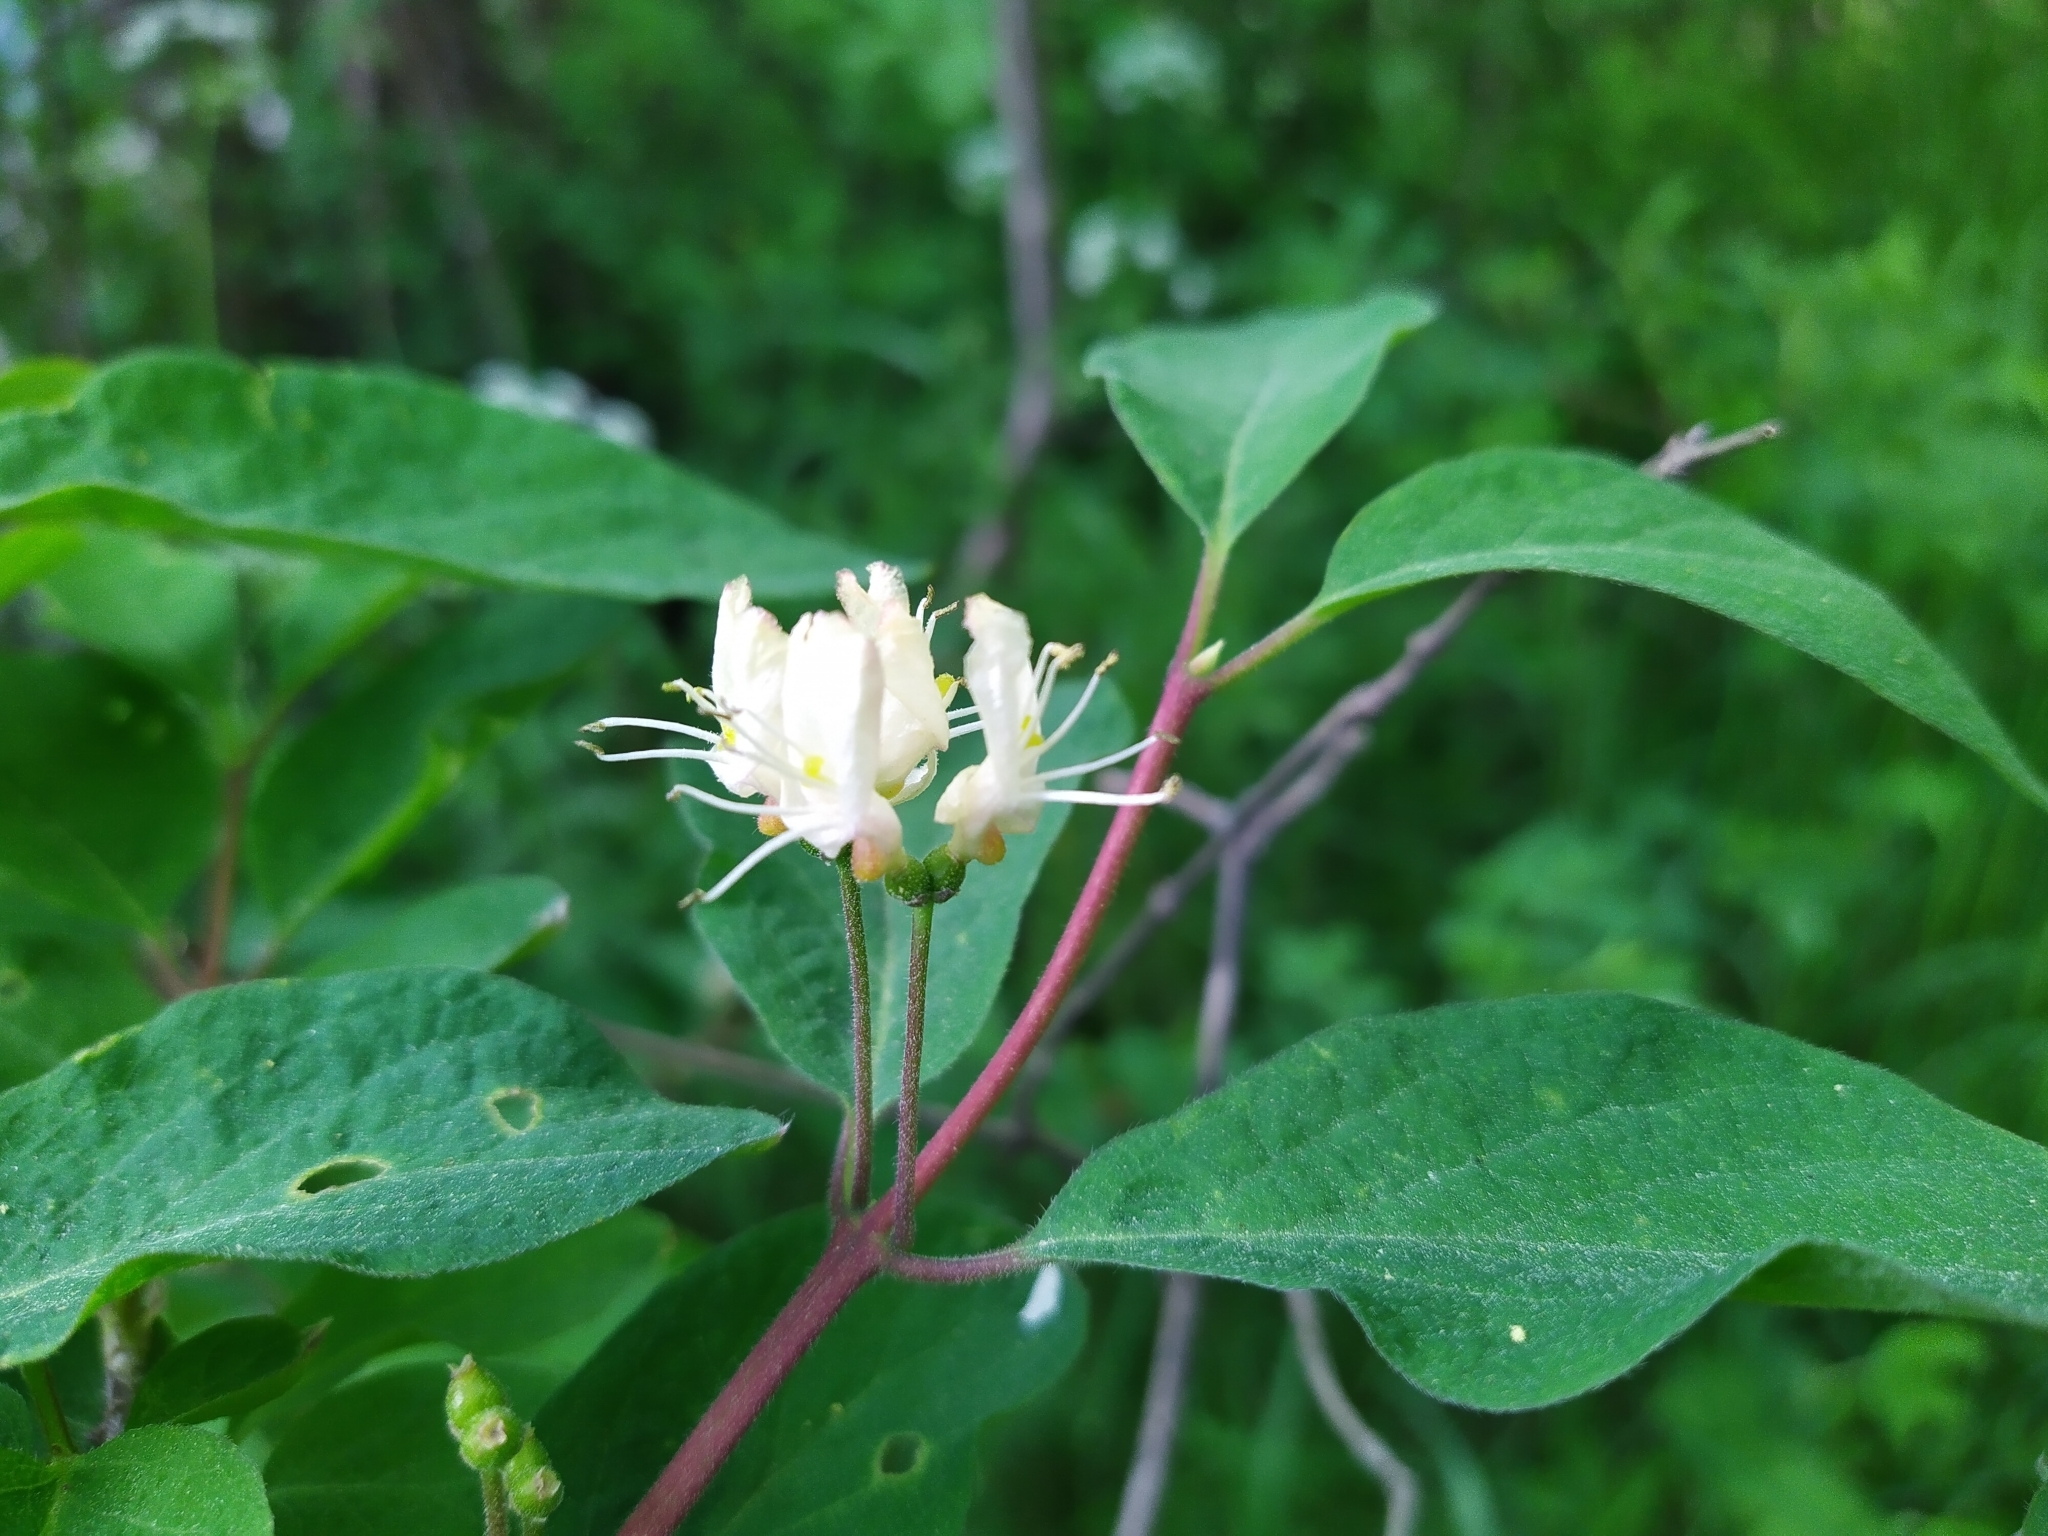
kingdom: Plantae
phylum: Tracheophyta
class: Magnoliopsida
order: Dipsacales
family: Caprifoliaceae
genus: Lonicera
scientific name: Lonicera xylosteum
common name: Fly honeysuckle
